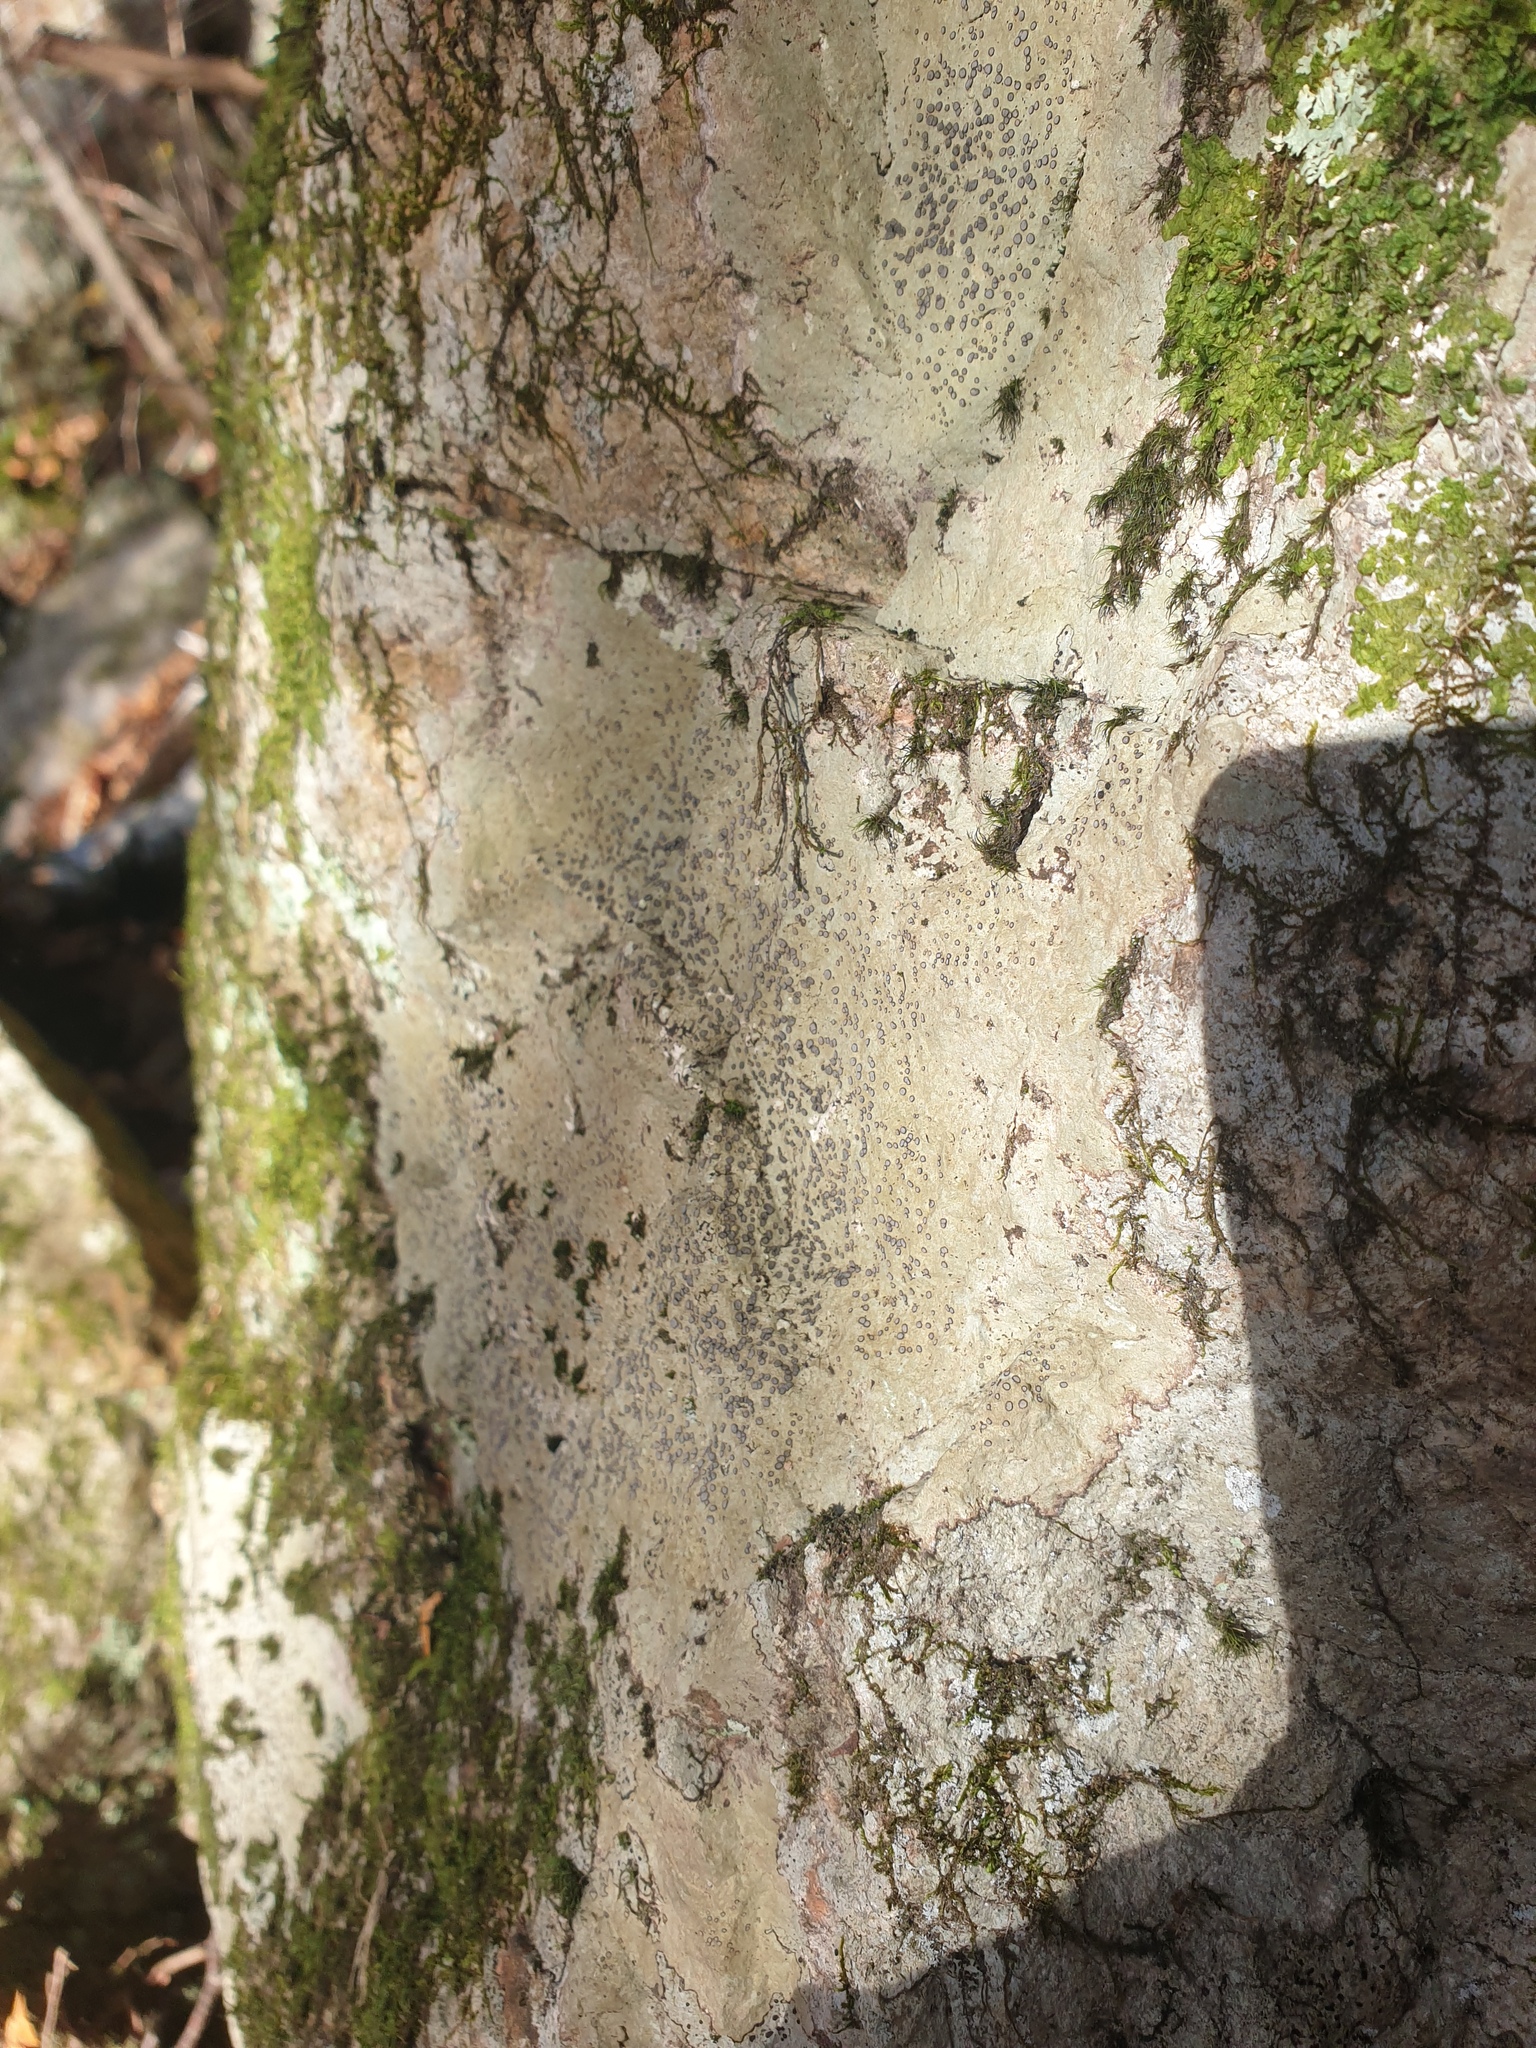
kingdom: Fungi
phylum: Ascomycota
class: Lecanoromycetes
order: Lecideales
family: Lecideaceae
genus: Porpidia
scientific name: Porpidia albocaerulescens
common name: Smokey-eyed boulder lichen
